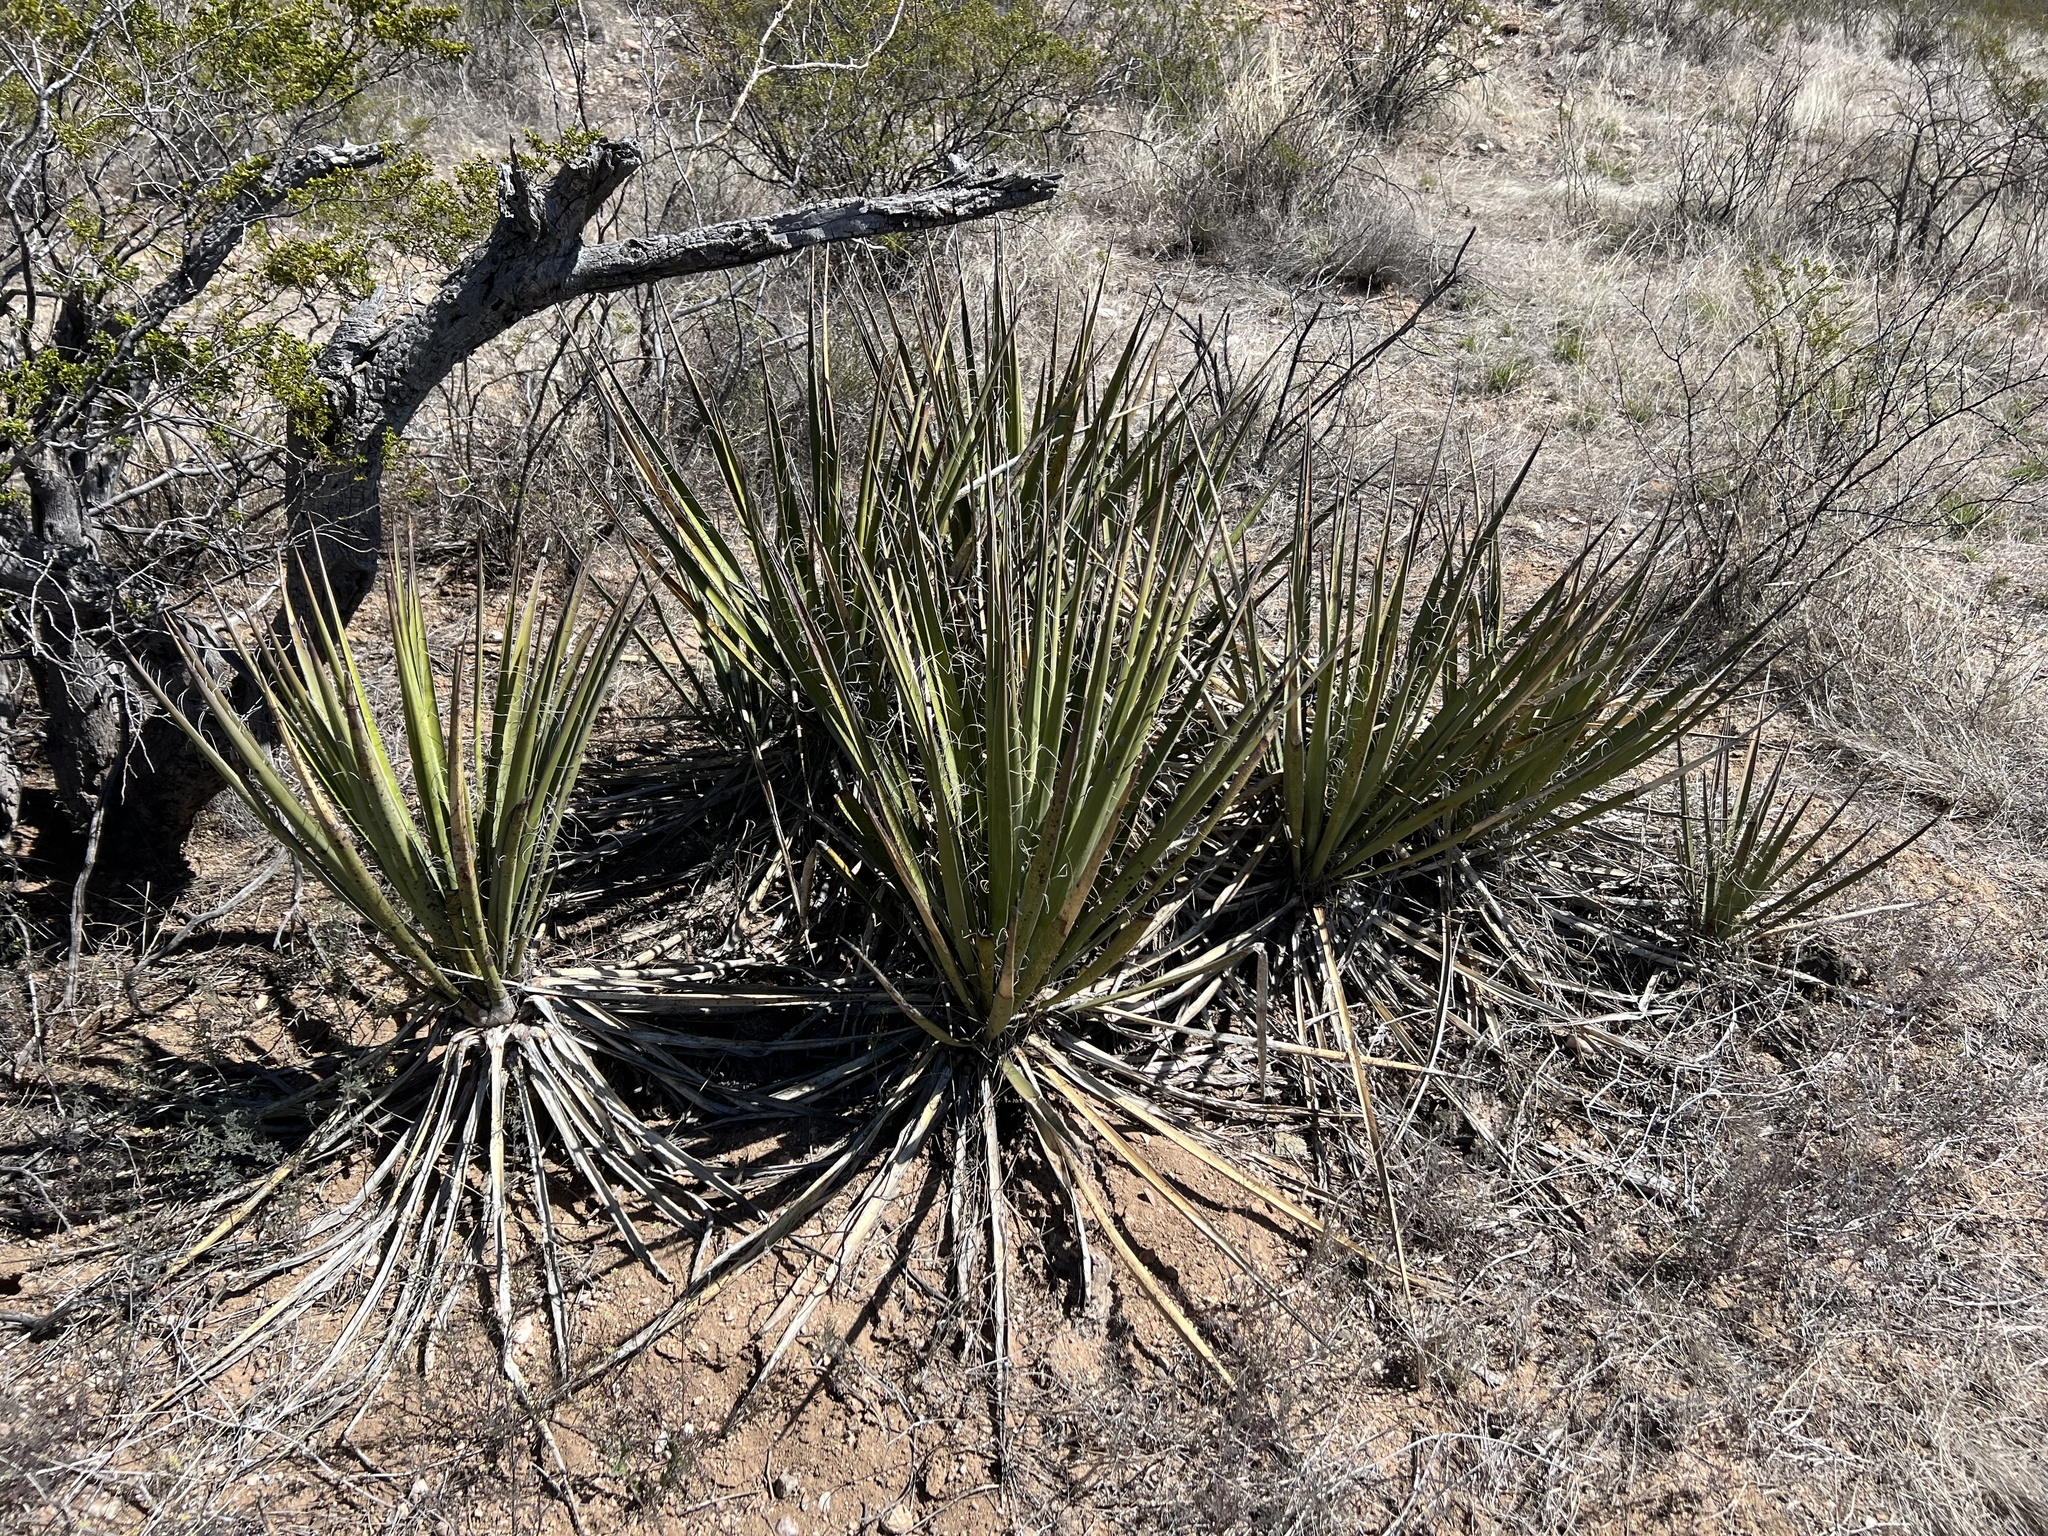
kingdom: Plantae
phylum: Tracheophyta
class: Liliopsida
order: Asparagales
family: Asparagaceae
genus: Yucca
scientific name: Yucca baccata
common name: Banana yucca
